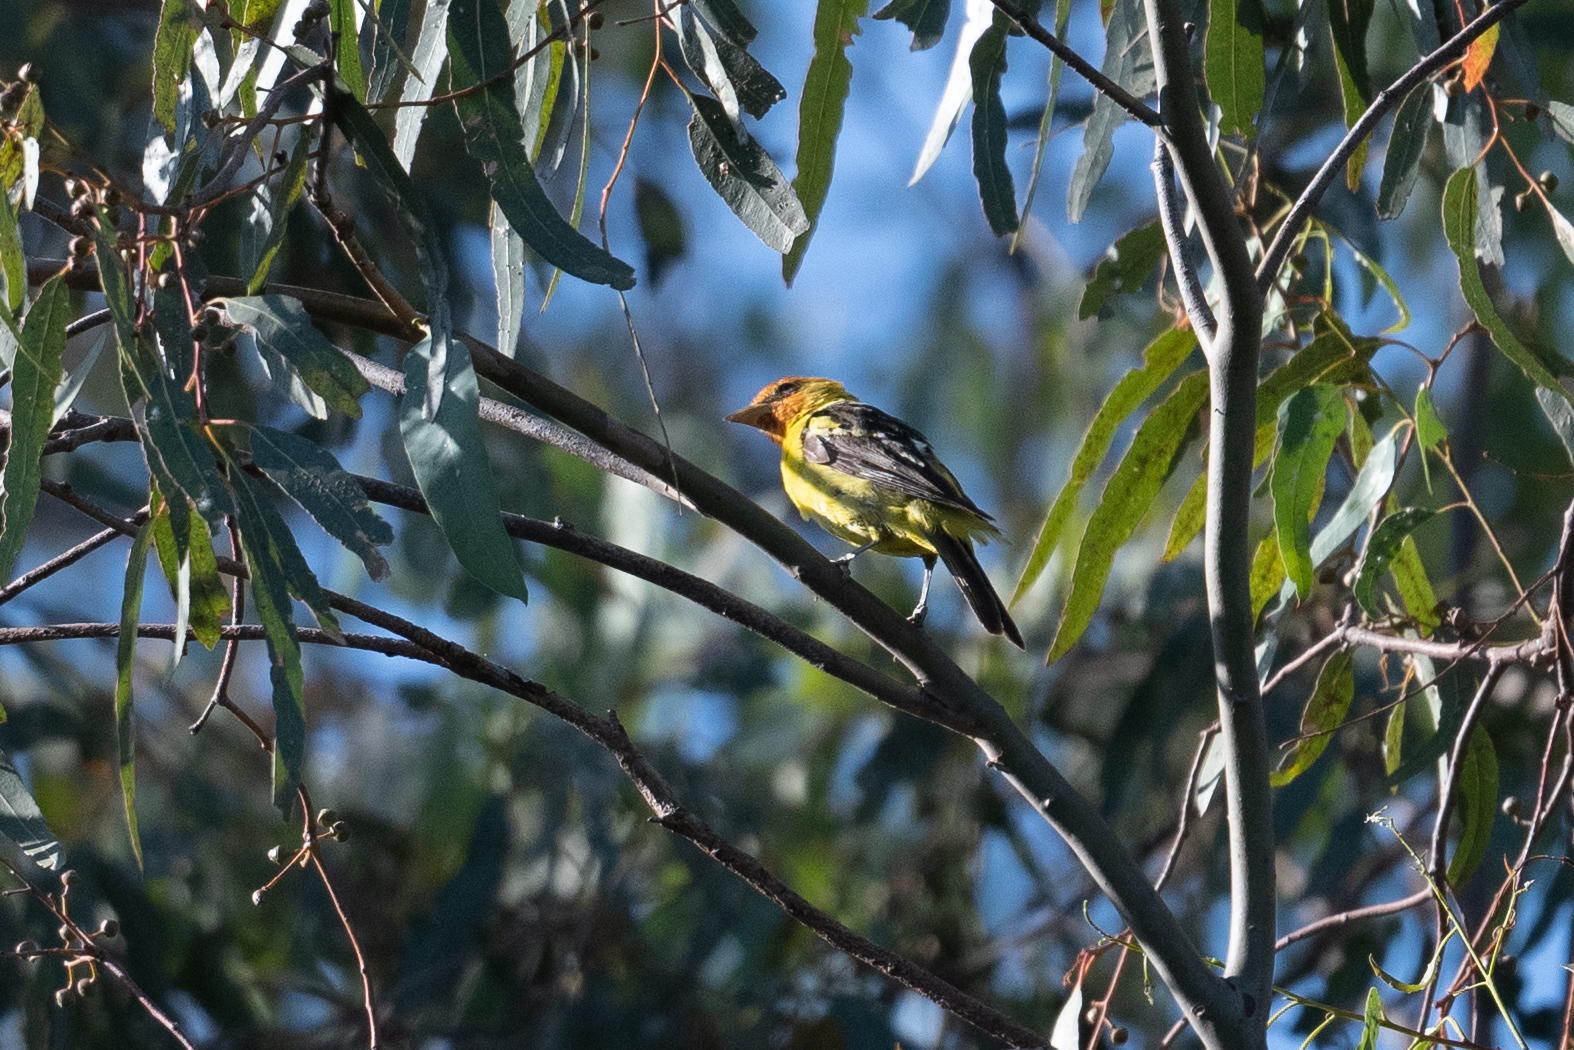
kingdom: Animalia
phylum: Chordata
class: Aves
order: Passeriformes
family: Cardinalidae
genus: Piranga
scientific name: Piranga ludoviciana
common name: Western tanager
